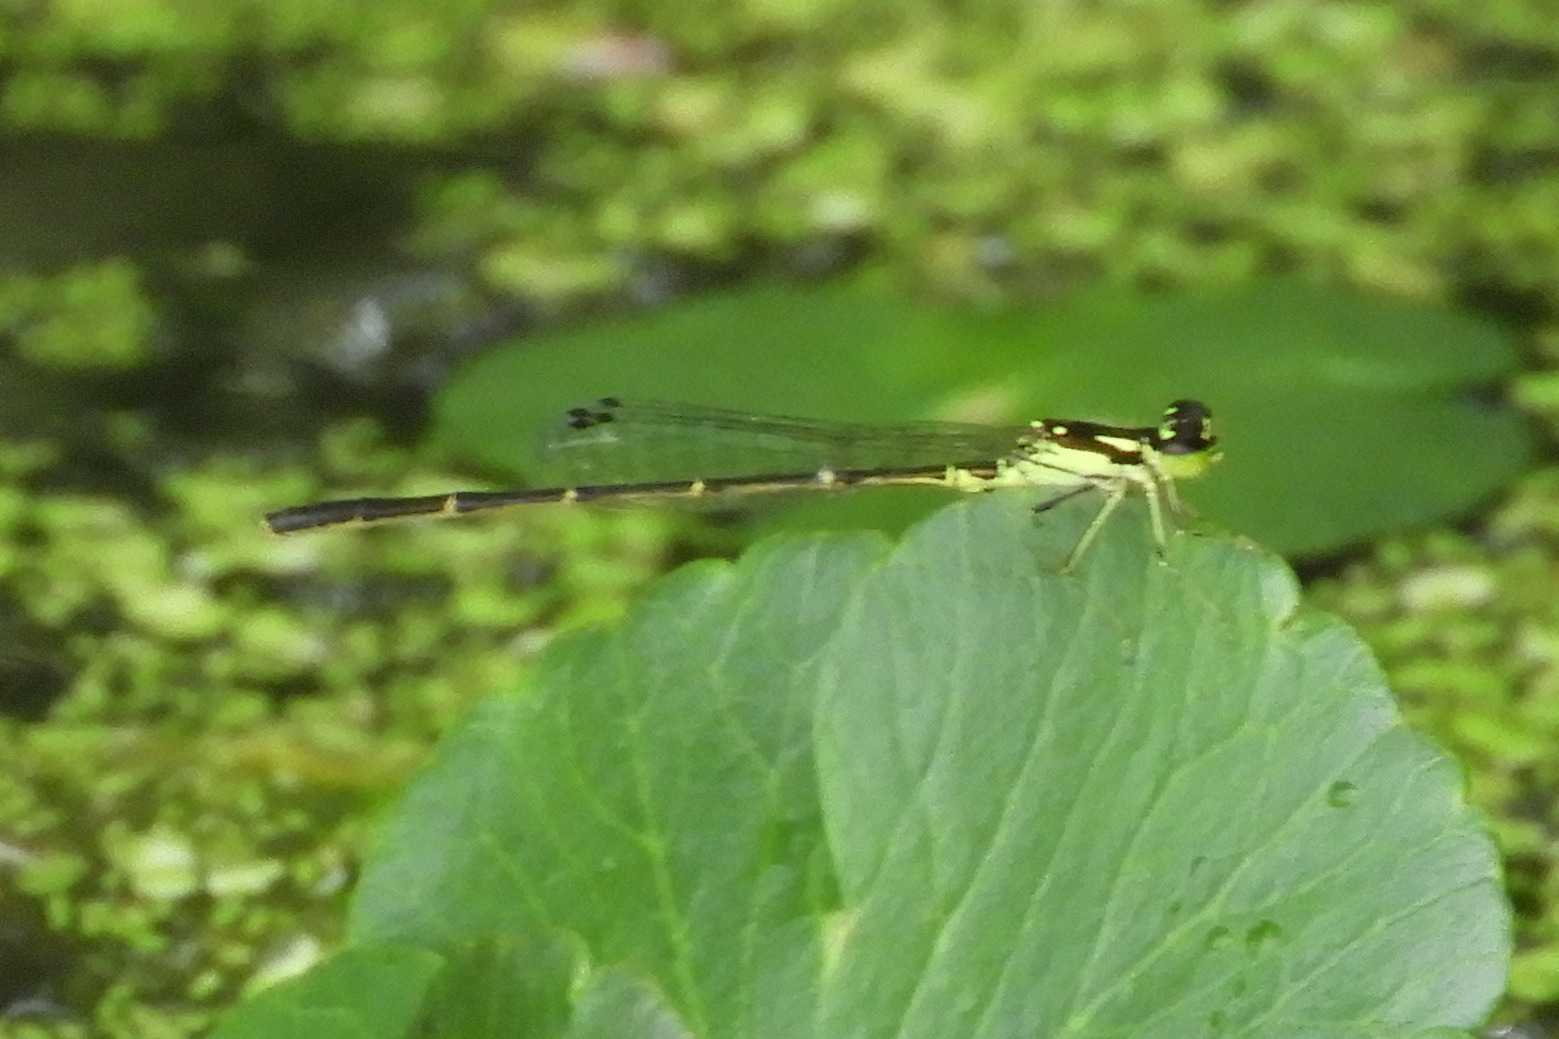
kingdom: Animalia
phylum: Arthropoda
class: Insecta
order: Odonata
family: Coenagrionidae
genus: Ischnura
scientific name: Ischnura posita
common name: Fragile forktail
